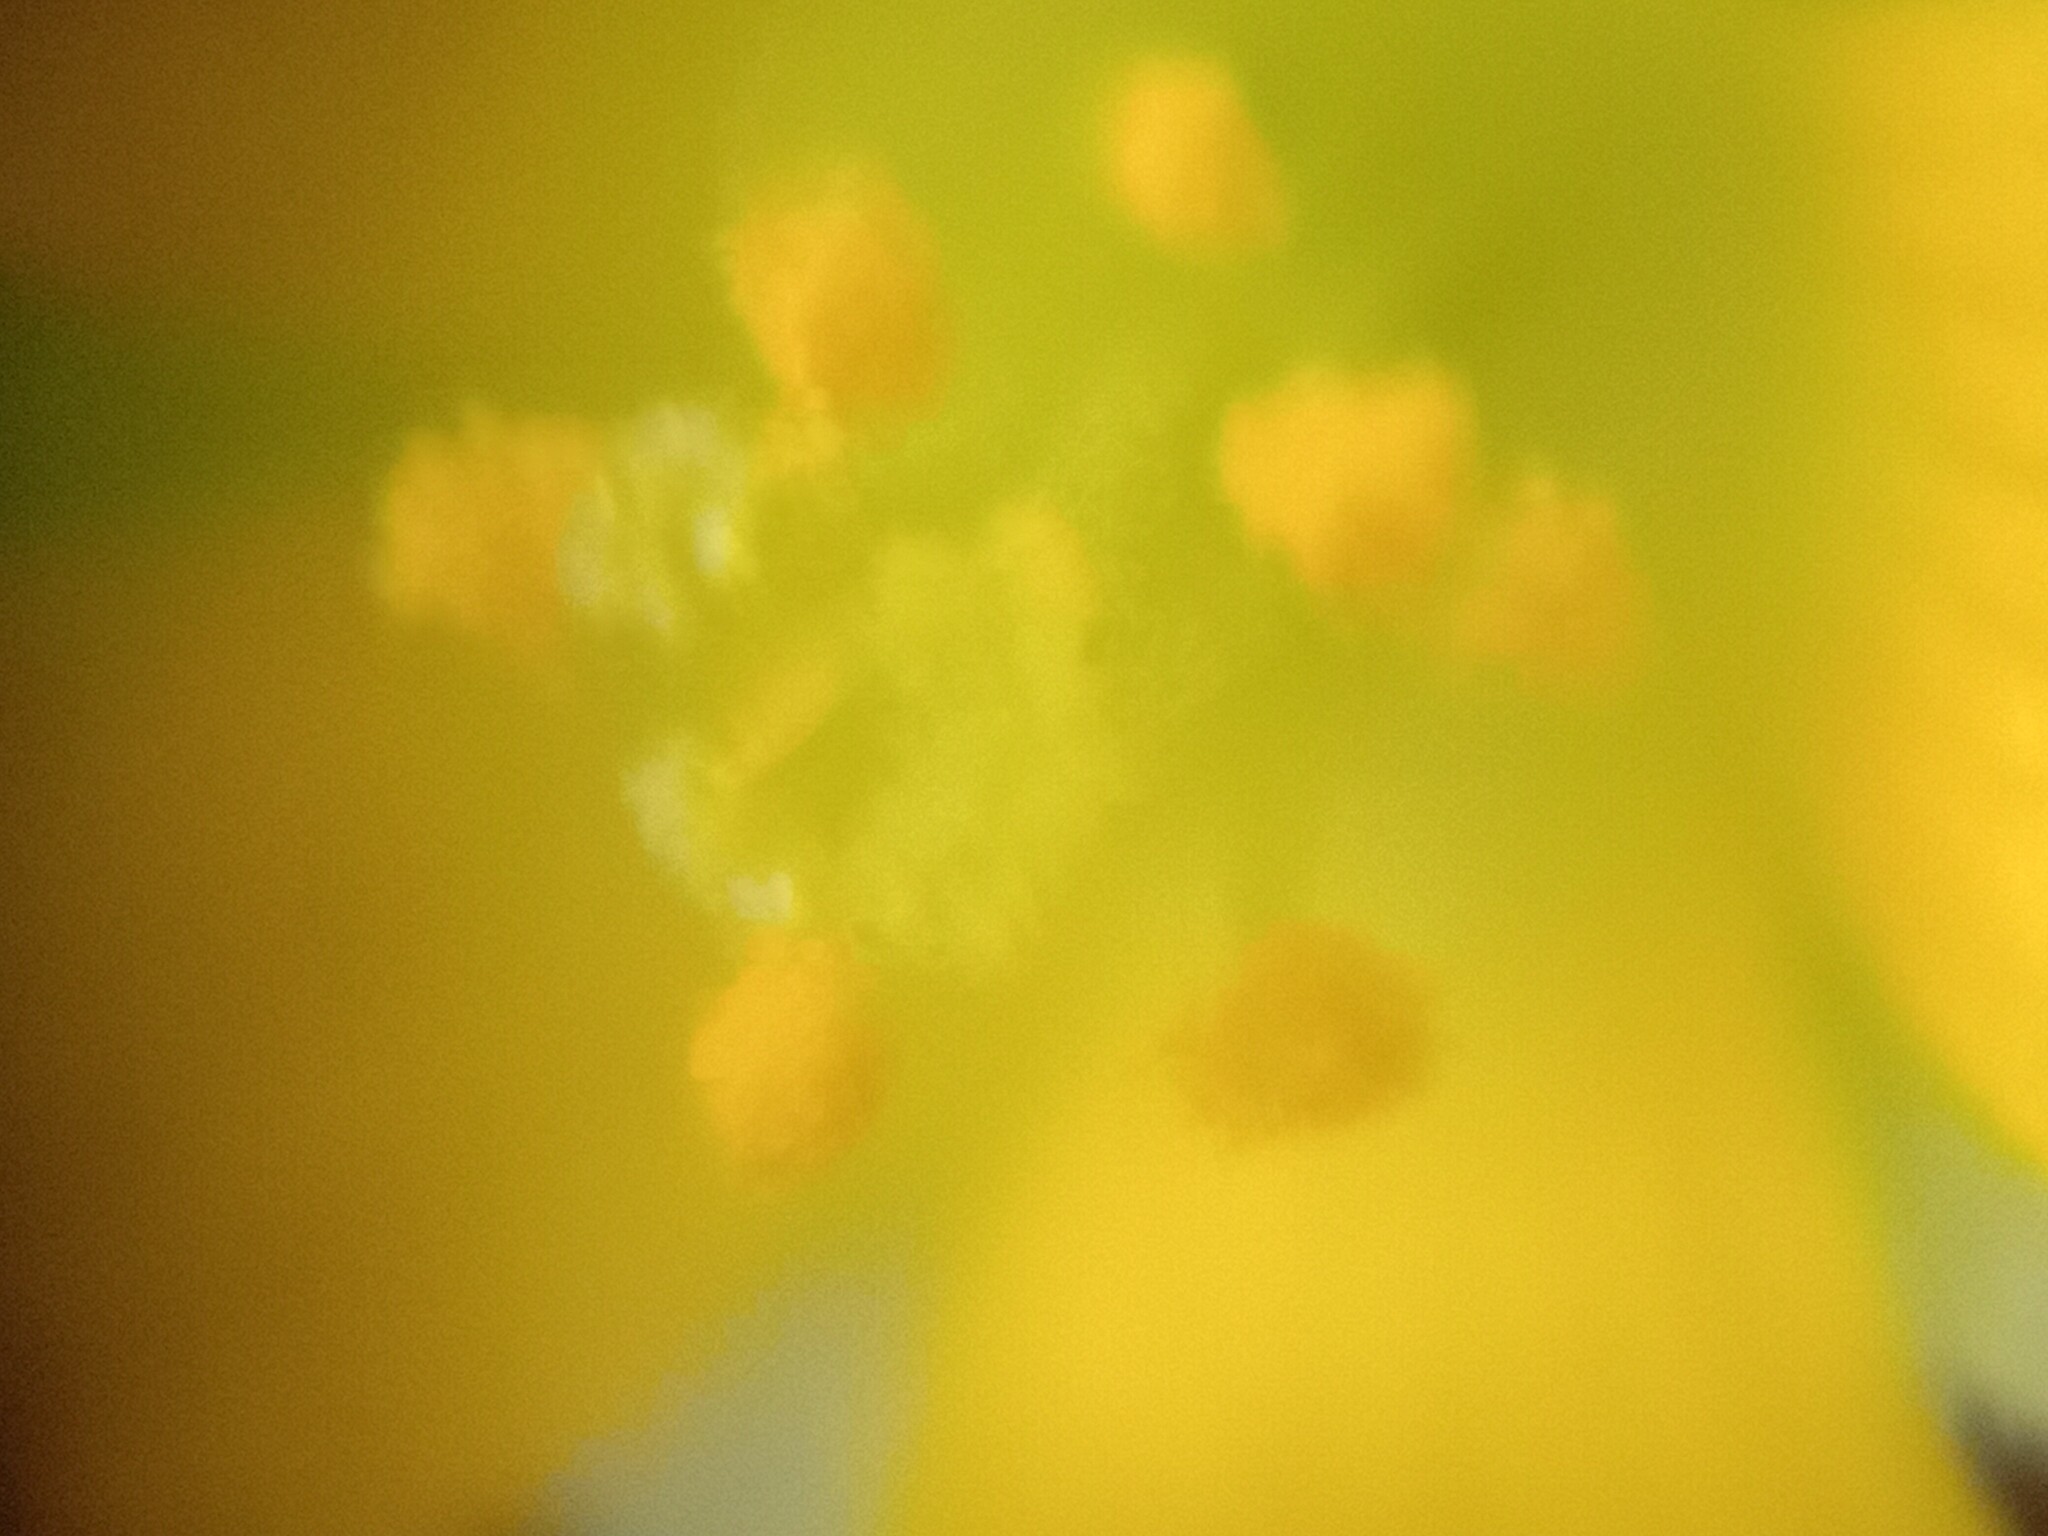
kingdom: Plantae
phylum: Tracheophyta
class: Magnoliopsida
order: Oxalidales
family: Oxalidaceae
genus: Oxalis
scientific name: Oxalis corniculata
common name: Procumbent yellow-sorrel
